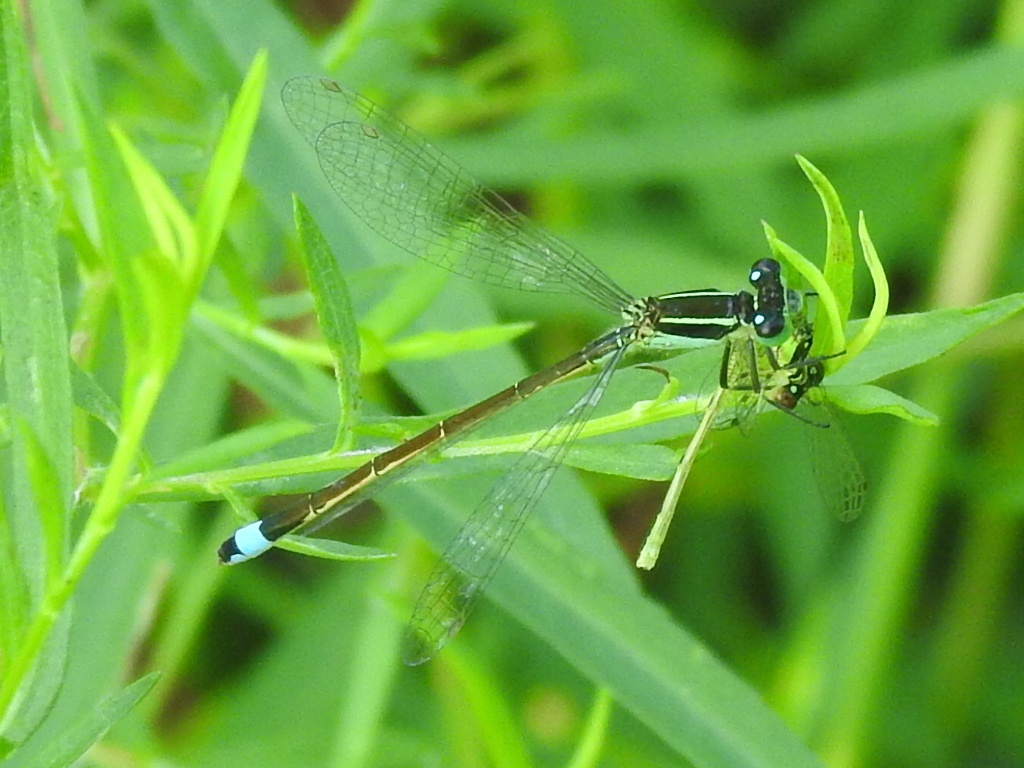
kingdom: Animalia
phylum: Arthropoda
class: Insecta
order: Odonata
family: Coenagrionidae
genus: Ischnura
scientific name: Ischnura ramburii
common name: Rambur's forktail
